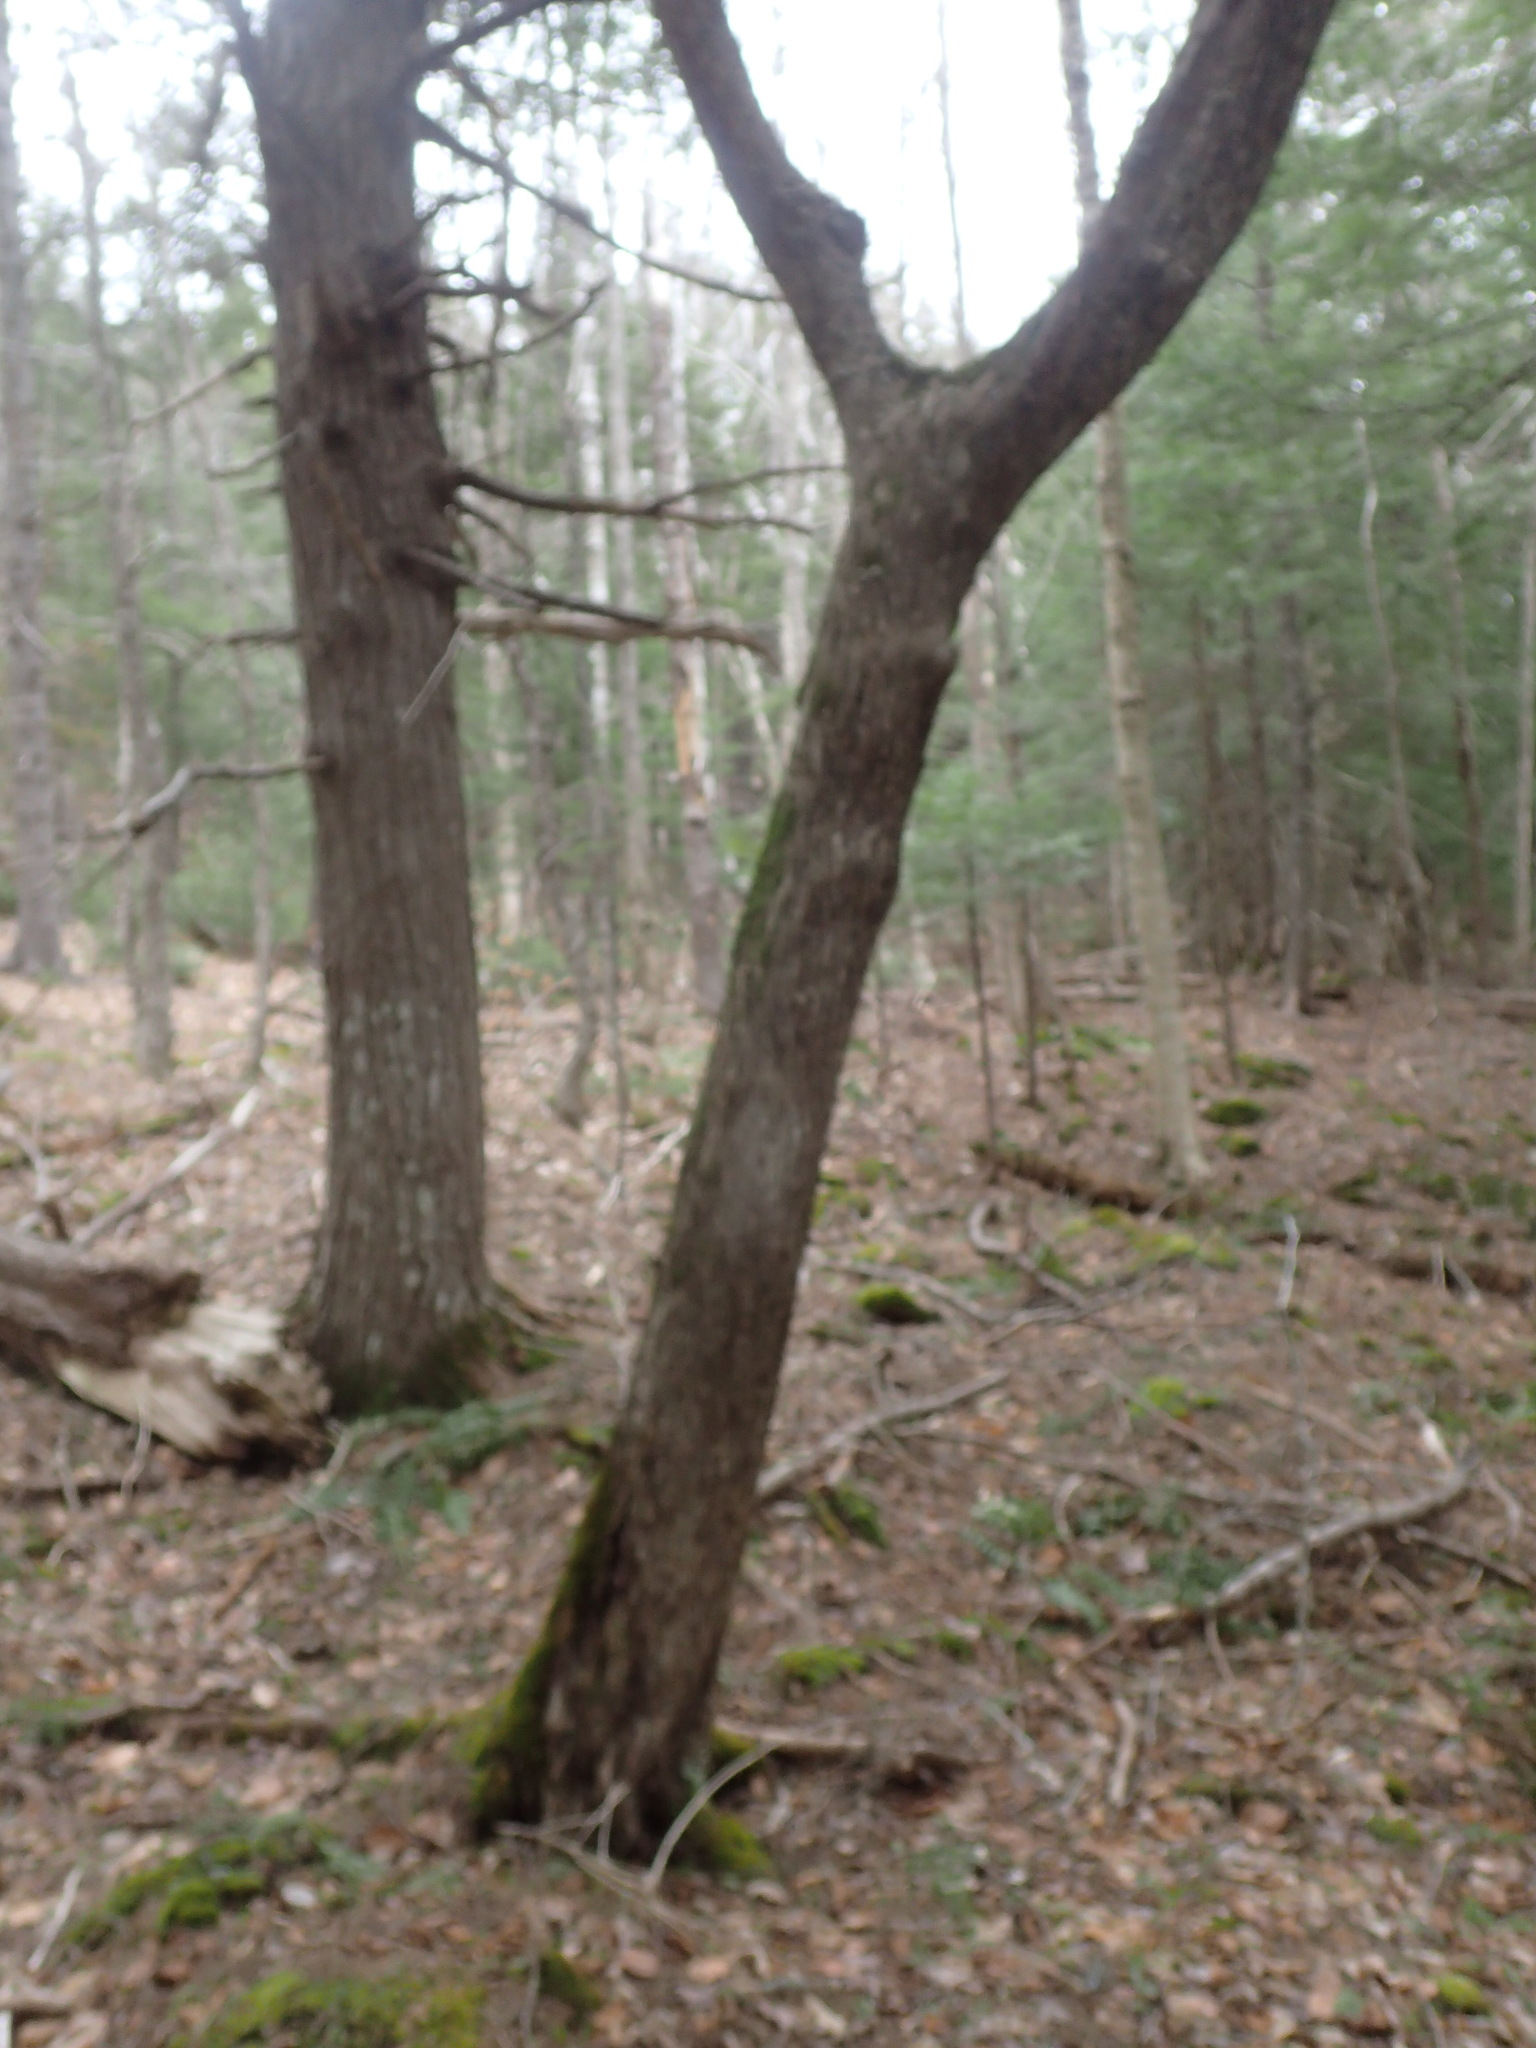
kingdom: Plantae
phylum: Tracheophyta
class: Magnoliopsida
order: Fagales
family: Betulaceae
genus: Ostrya
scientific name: Ostrya virginiana
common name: Ironwood
